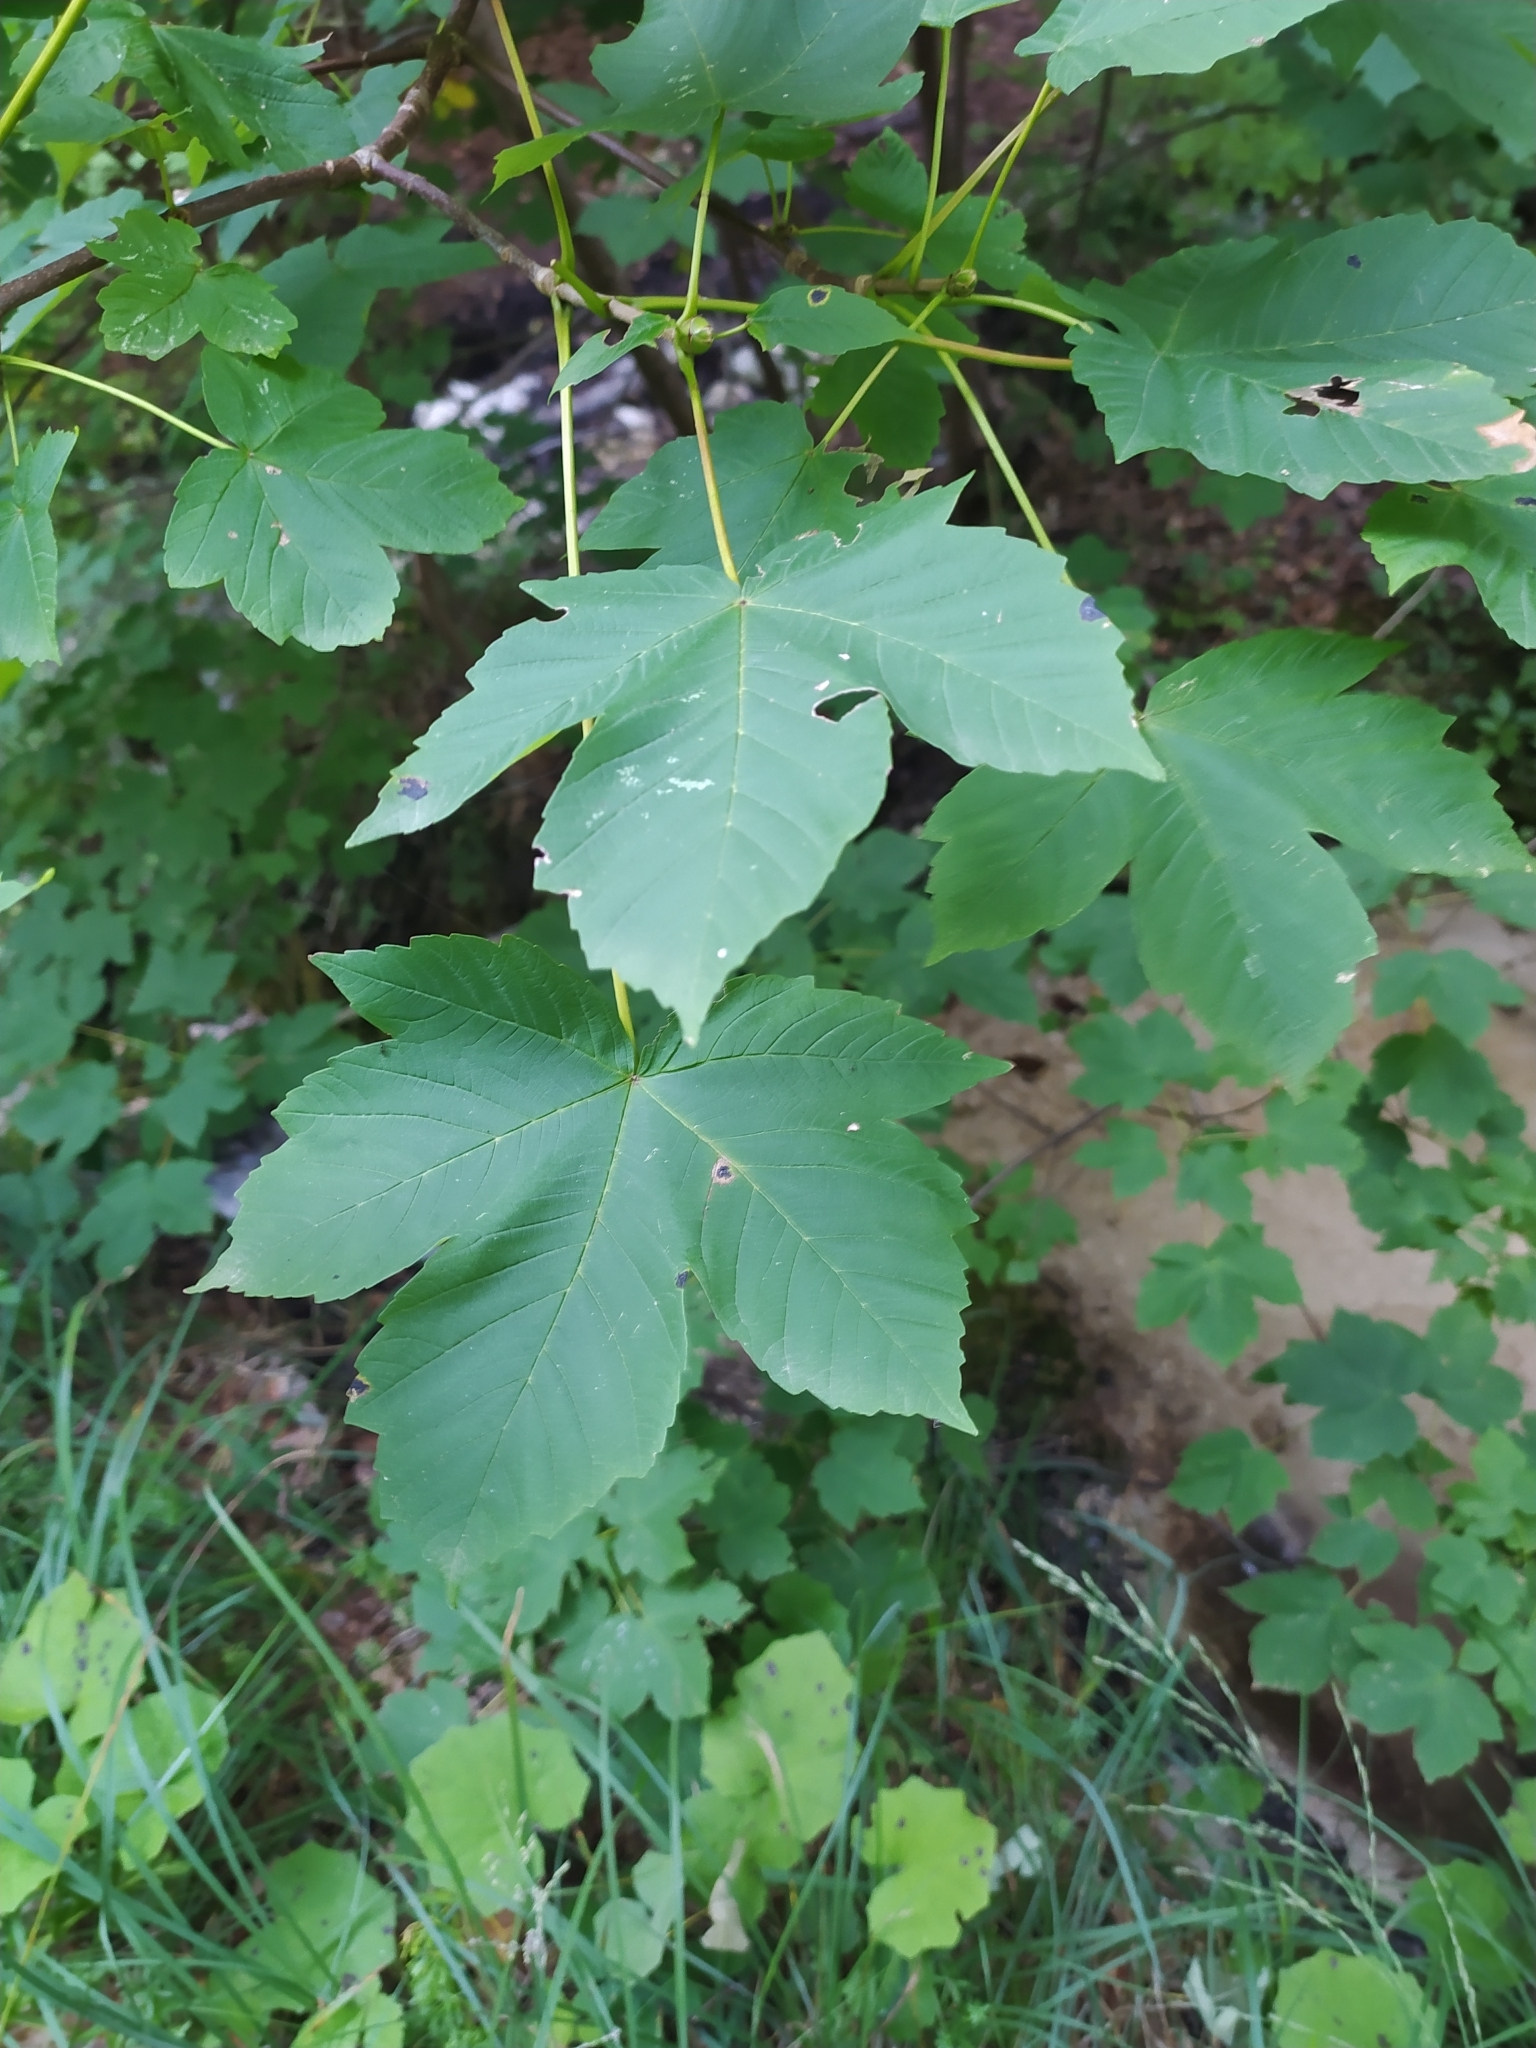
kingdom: Plantae
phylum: Tracheophyta
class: Magnoliopsida
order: Sapindales
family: Sapindaceae
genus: Acer
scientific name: Acer pseudoplatanus
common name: Sycamore
